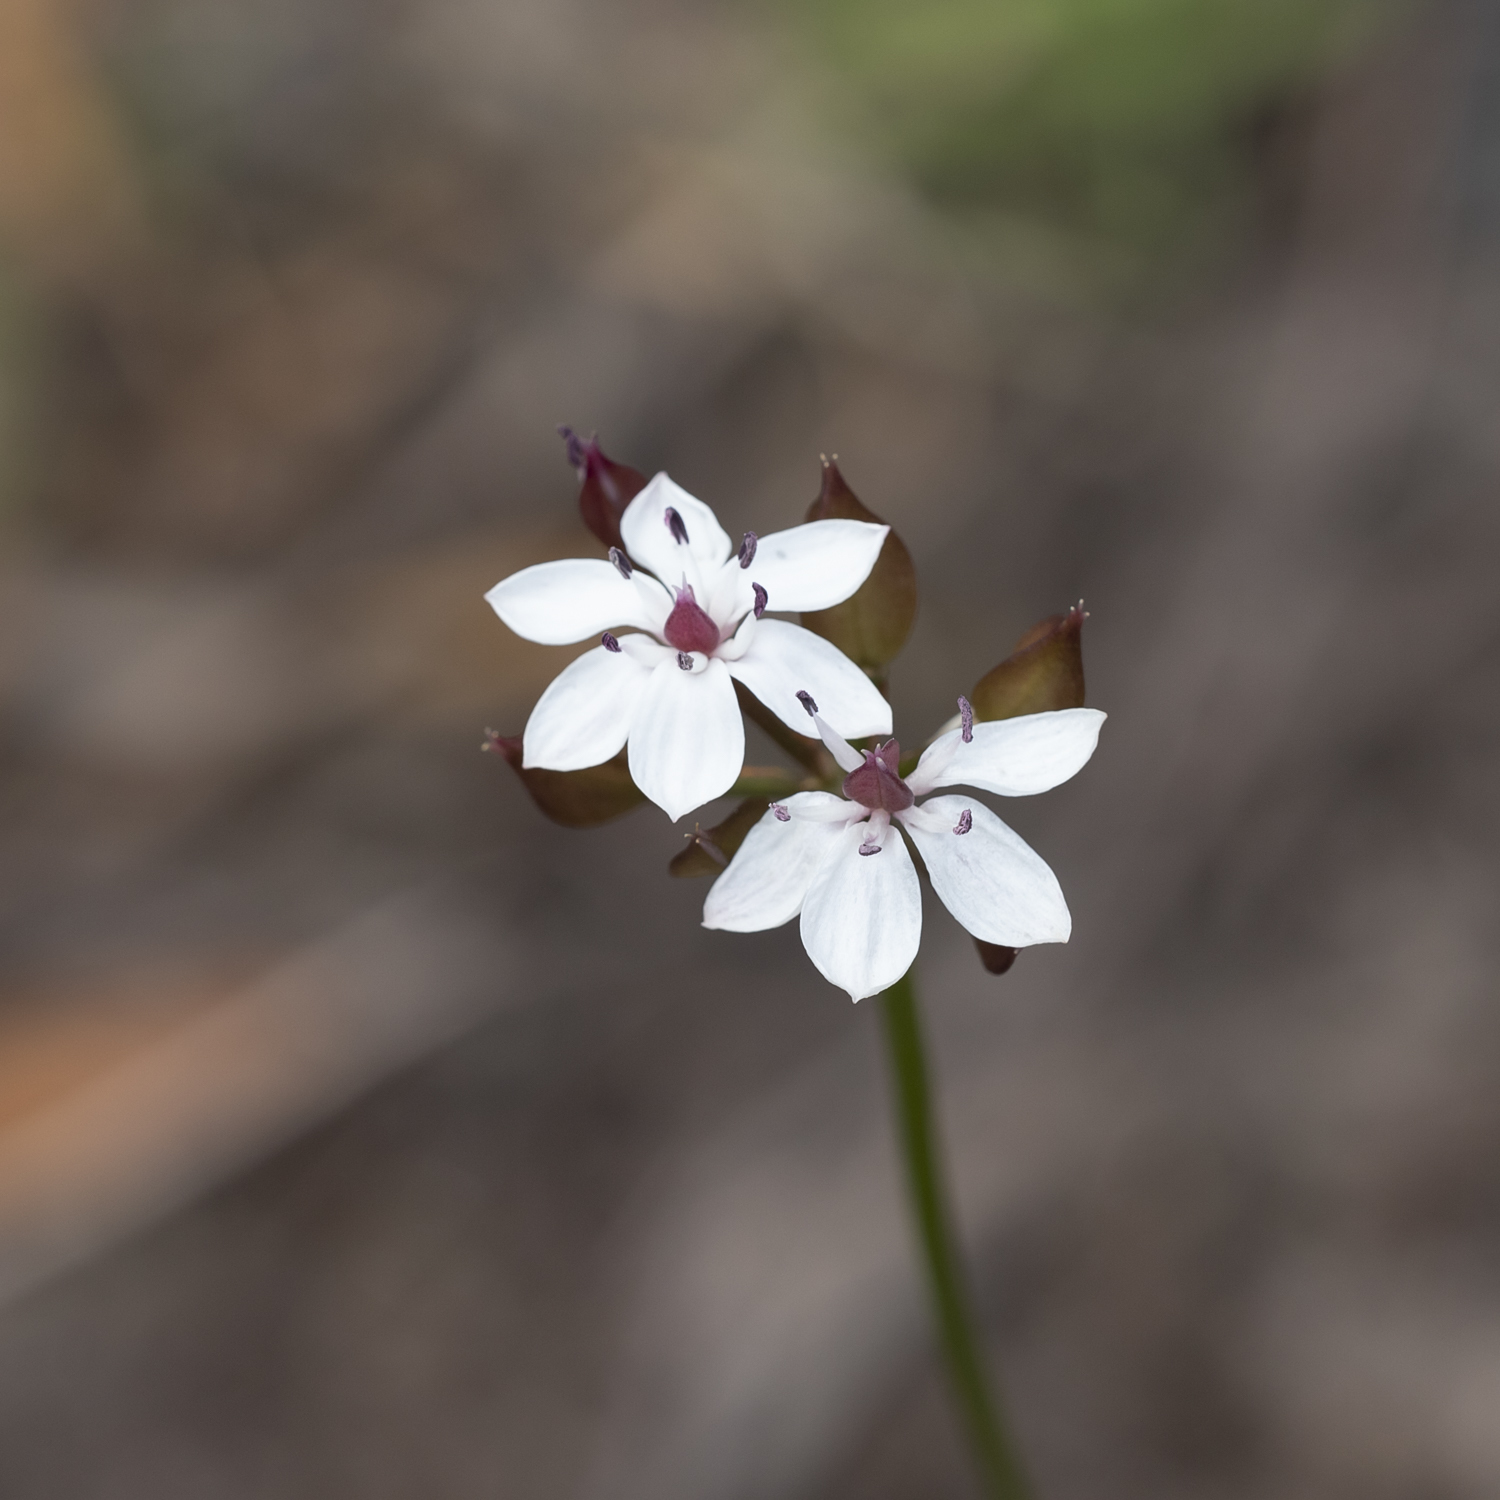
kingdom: Plantae
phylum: Tracheophyta
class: Liliopsida
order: Liliales
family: Colchicaceae
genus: Burchardia
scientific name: Burchardia umbellata
